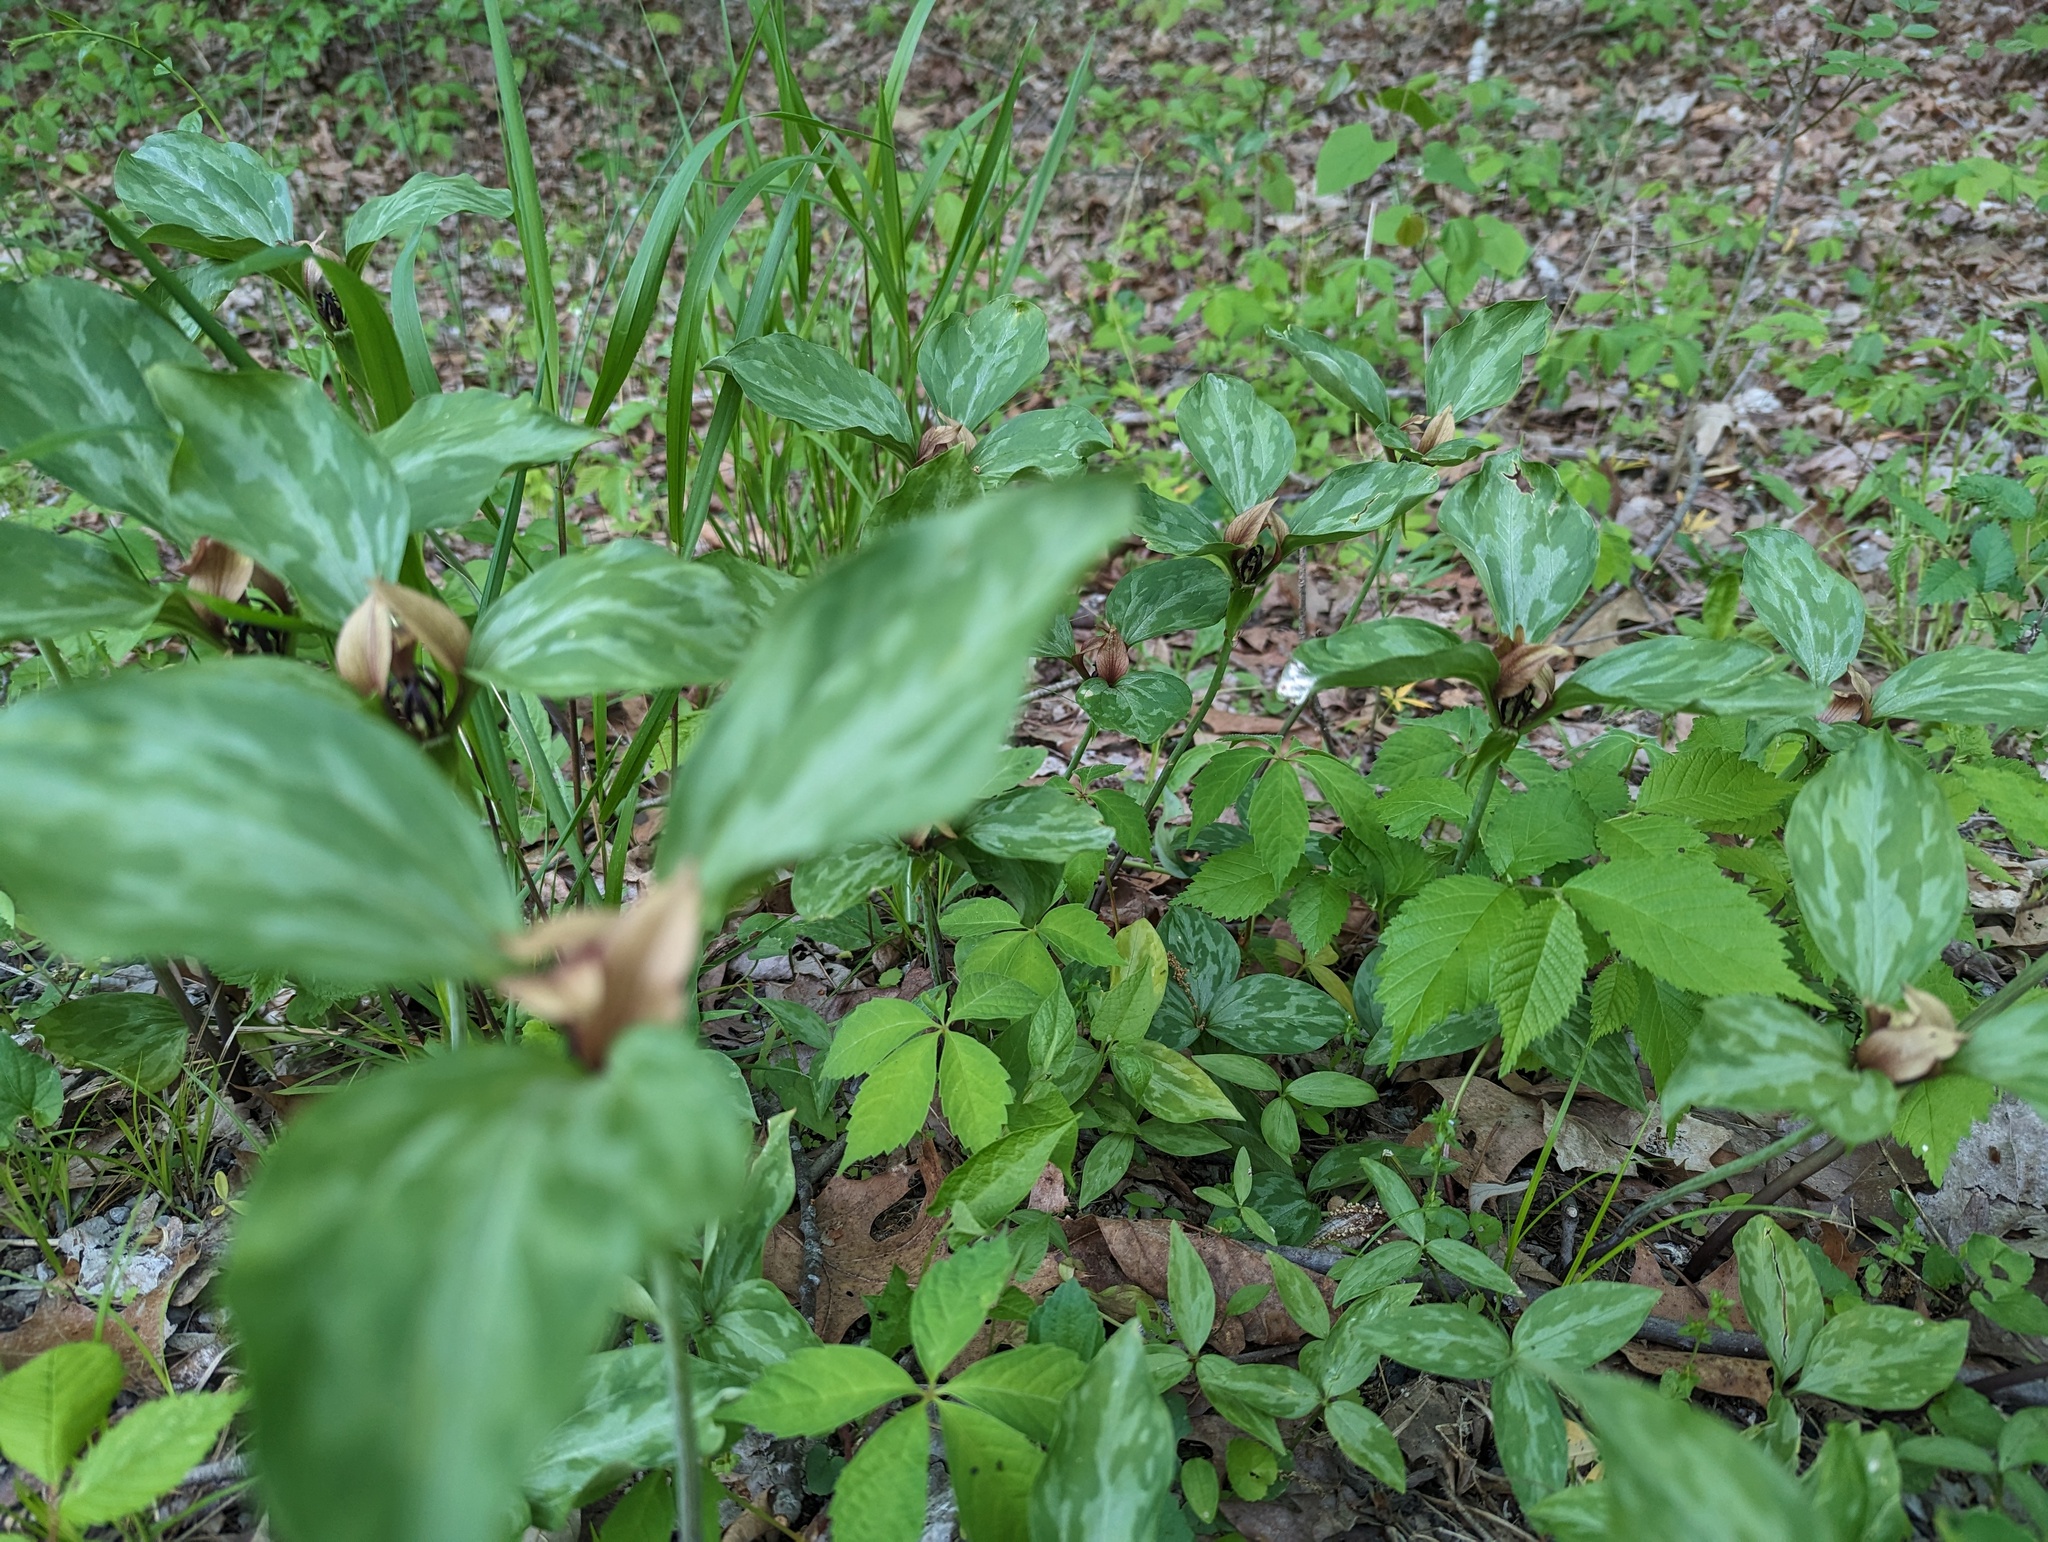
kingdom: Plantae
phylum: Tracheophyta
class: Liliopsida
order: Liliales
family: Melanthiaceae
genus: Trillium
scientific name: Trillium recurvatum
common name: Bloody butcher
